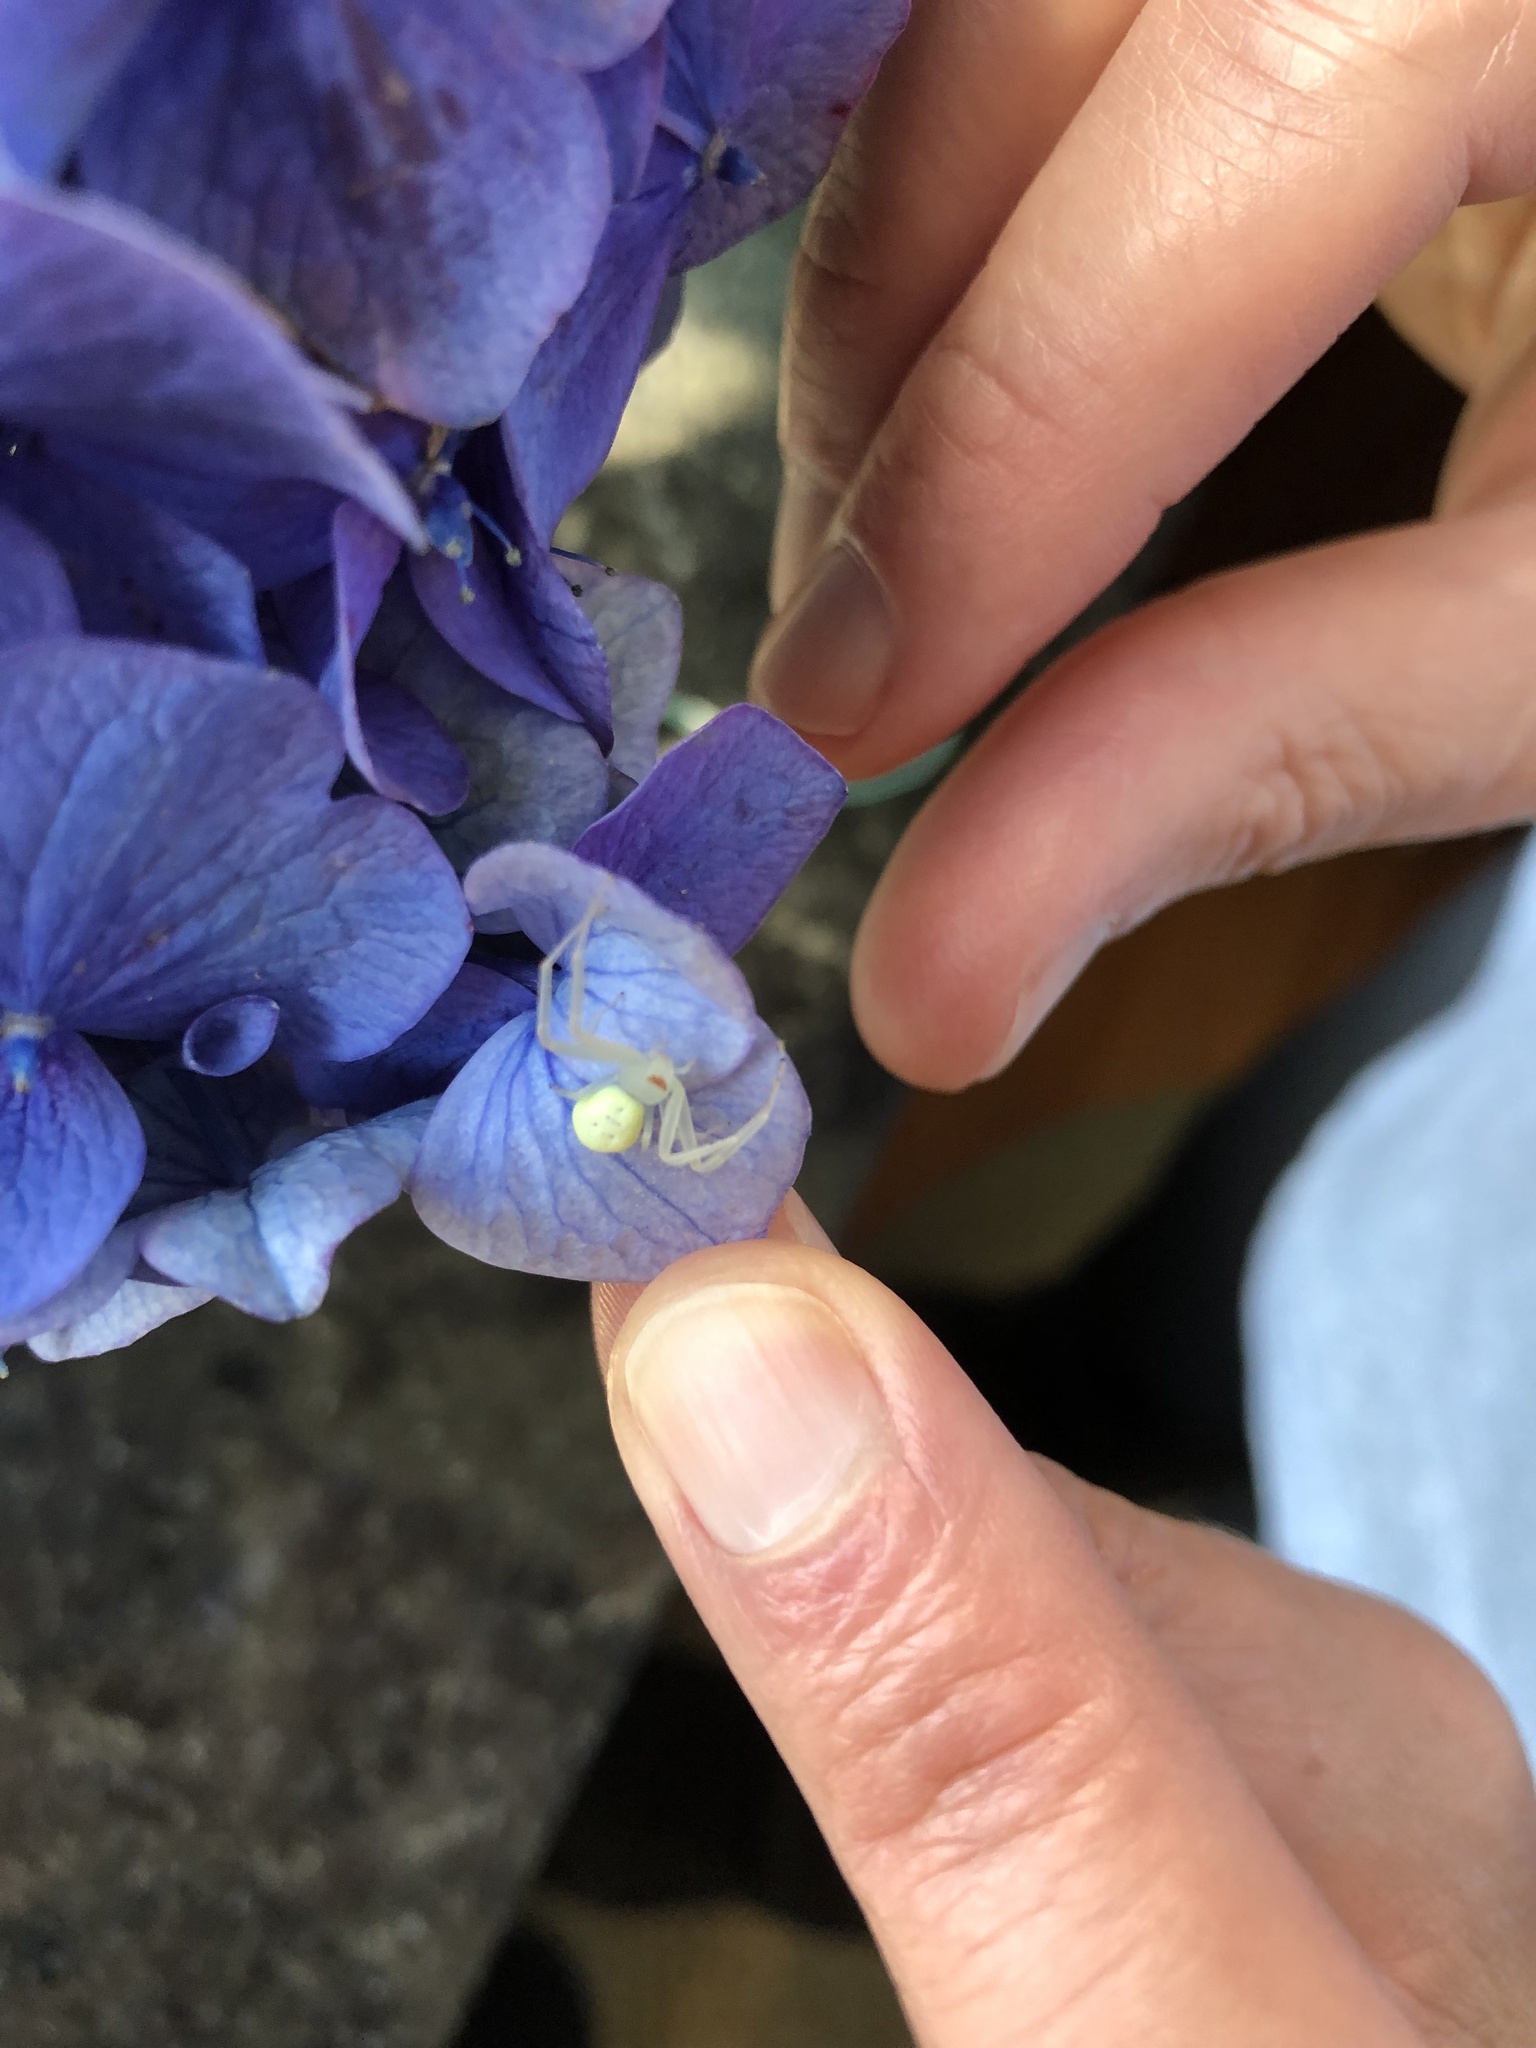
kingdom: Animalia
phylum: Arthropoda
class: Arachnida
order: Araneae
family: Thomisidae
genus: Misumessus
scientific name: Misumessus oblongus
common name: American green crab spider
